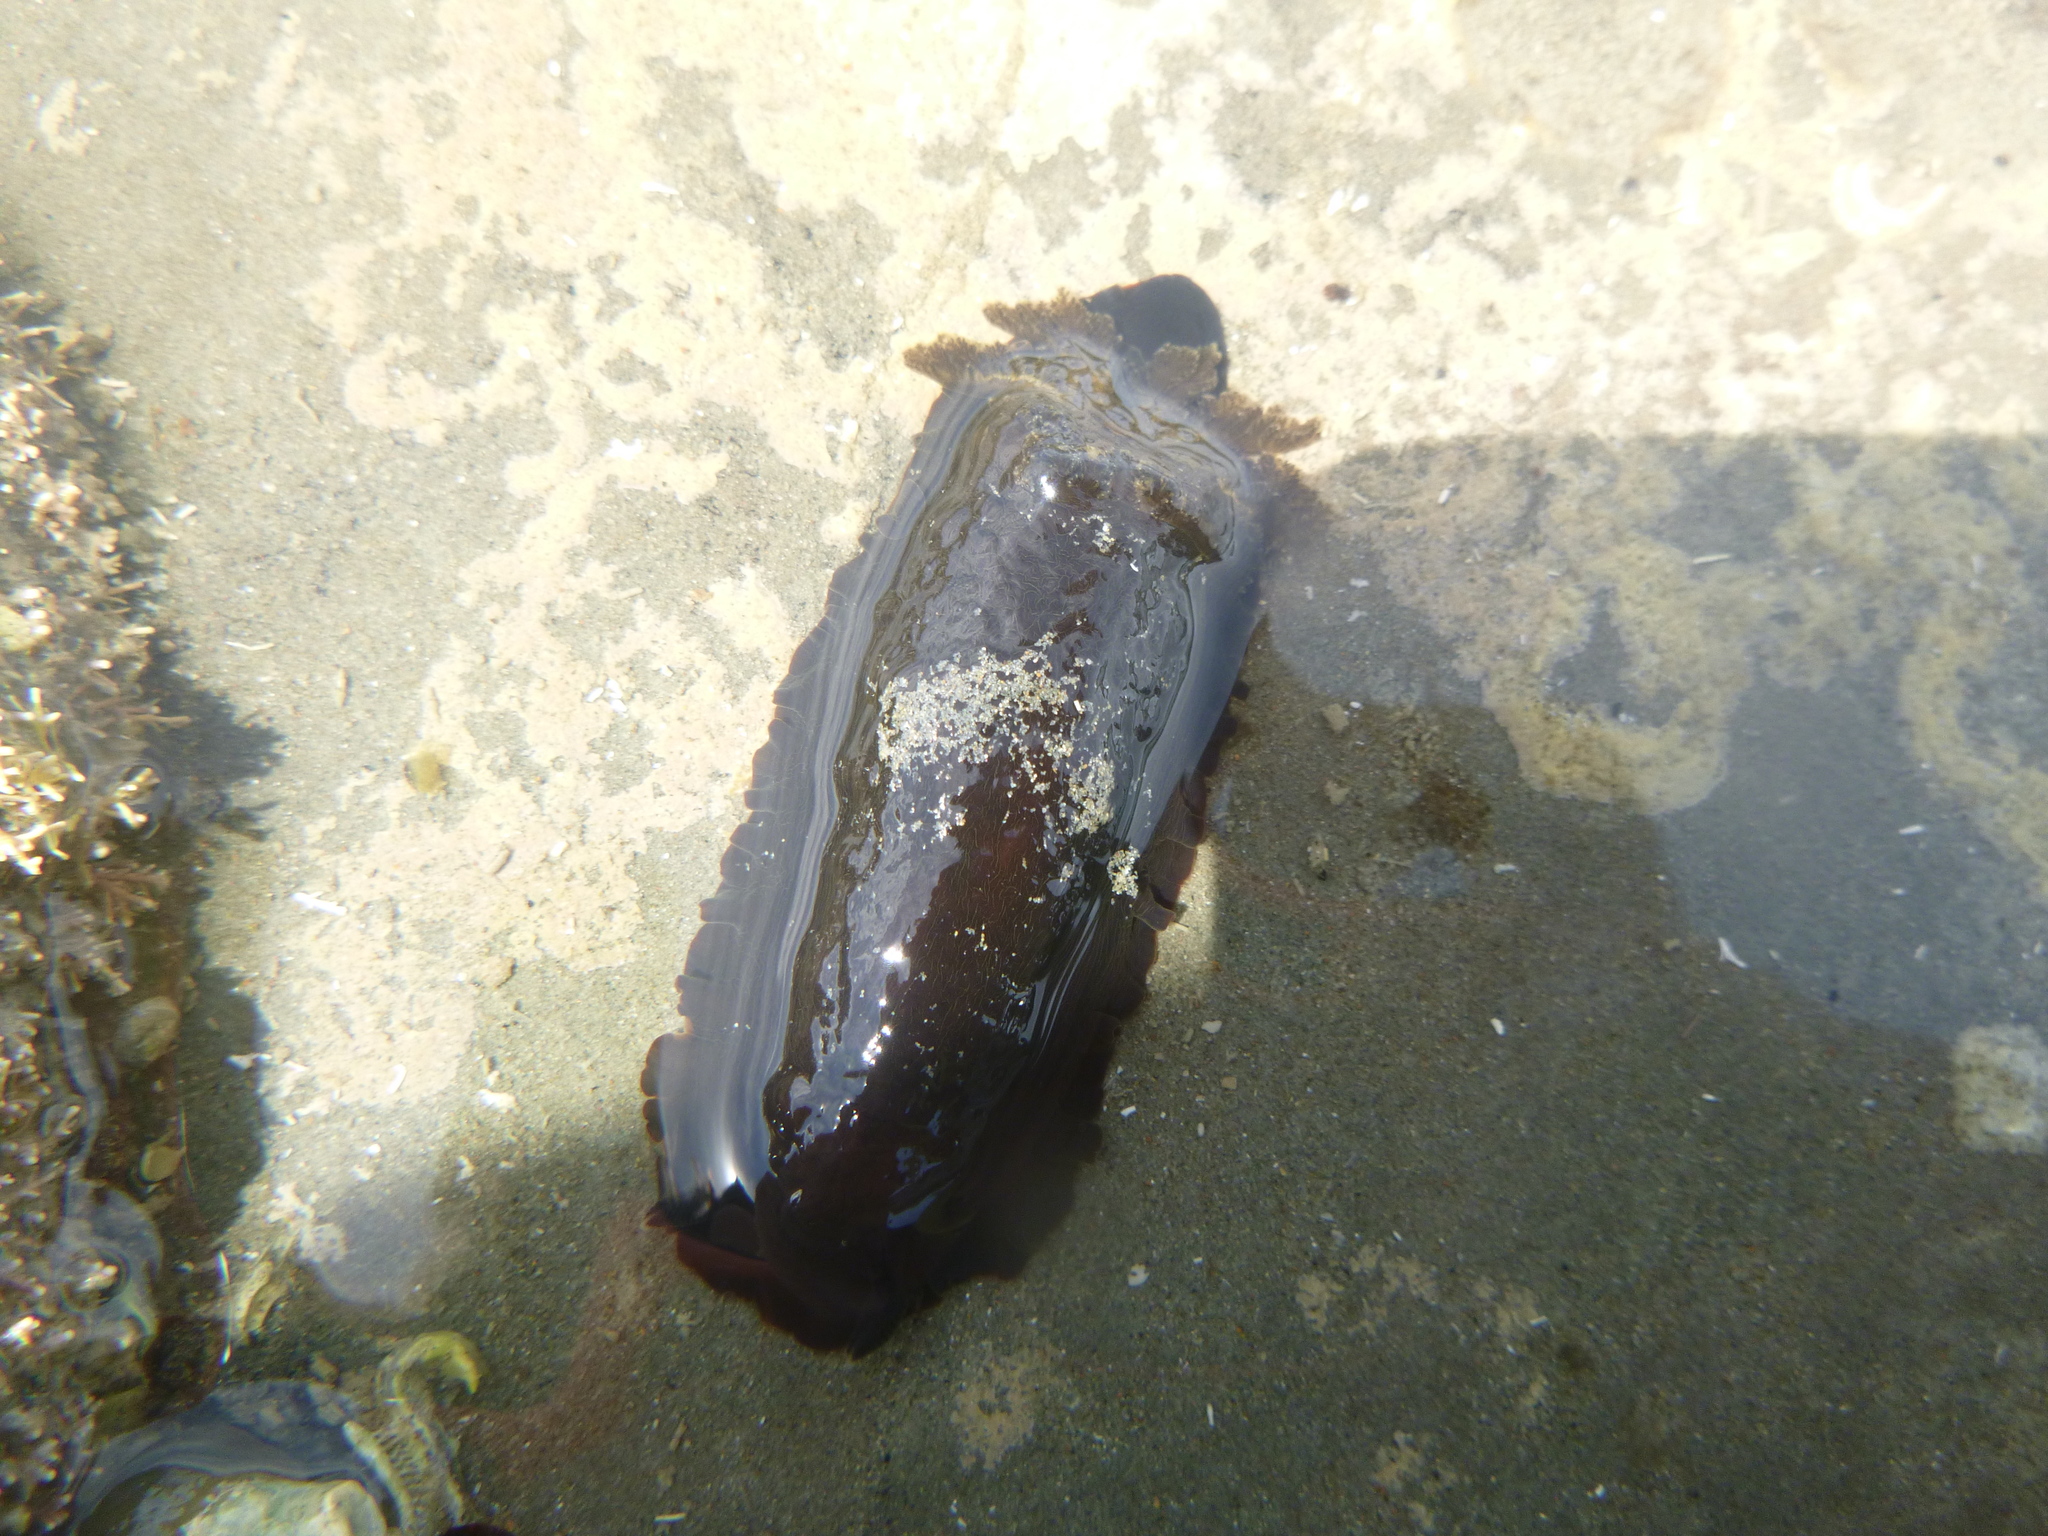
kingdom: Animalia
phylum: Mollusca
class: Gastropoda
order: Nudibranchia
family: Dendrodorididae
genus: Dendrodoris
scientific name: Dendrodoris nigra
